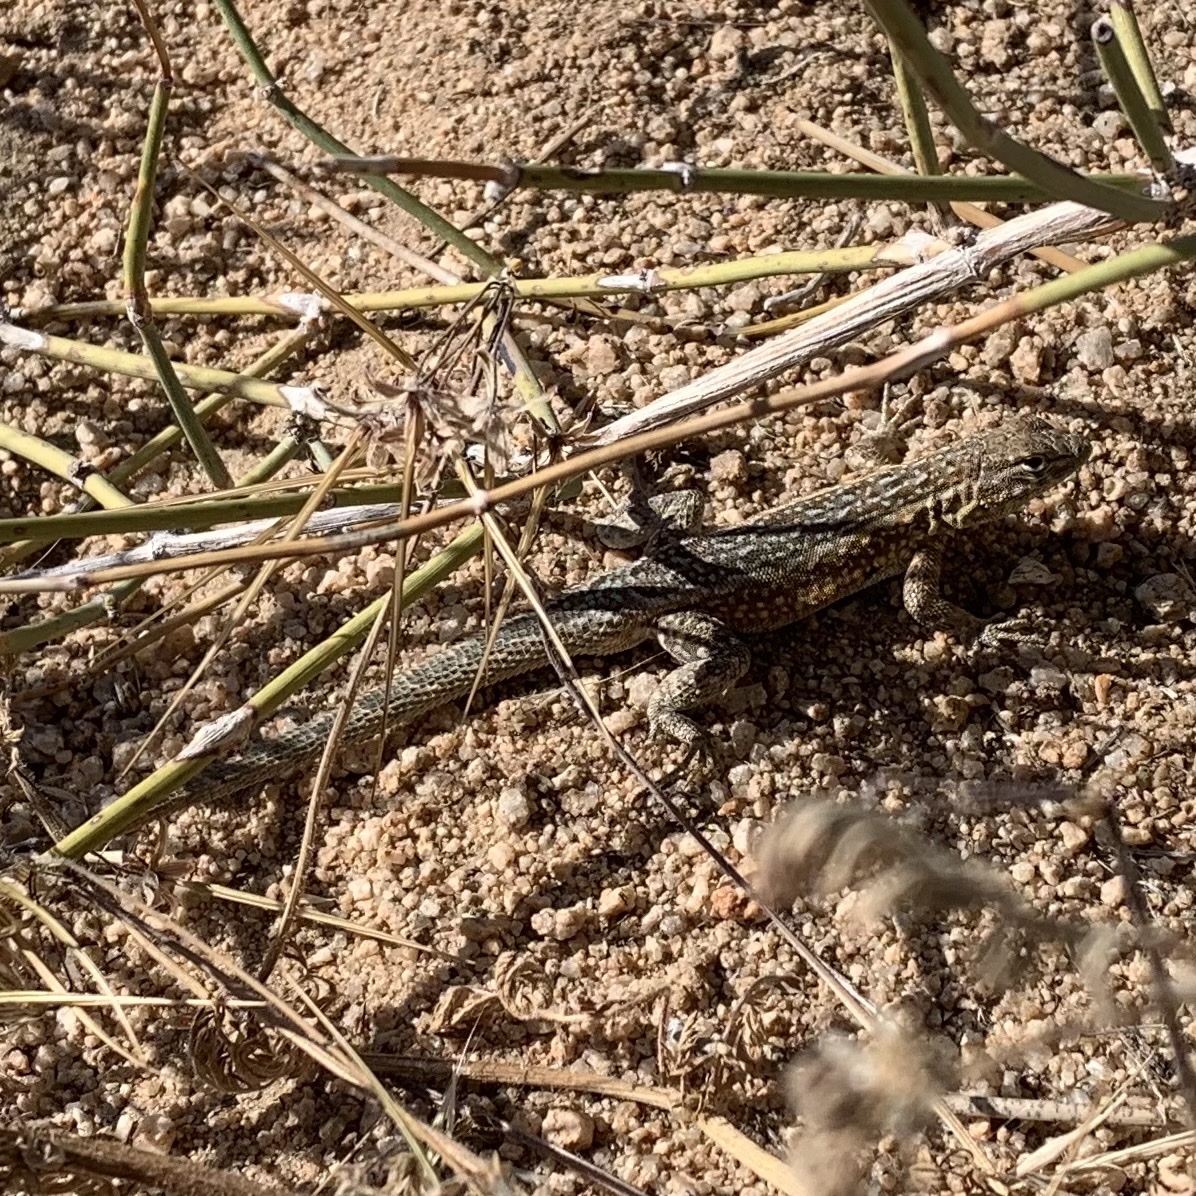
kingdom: Animalia
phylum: Chordata
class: Squamata
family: Phrynosomatidae
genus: Uta
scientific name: Uta stansburiana
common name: Side-blotched lizard
